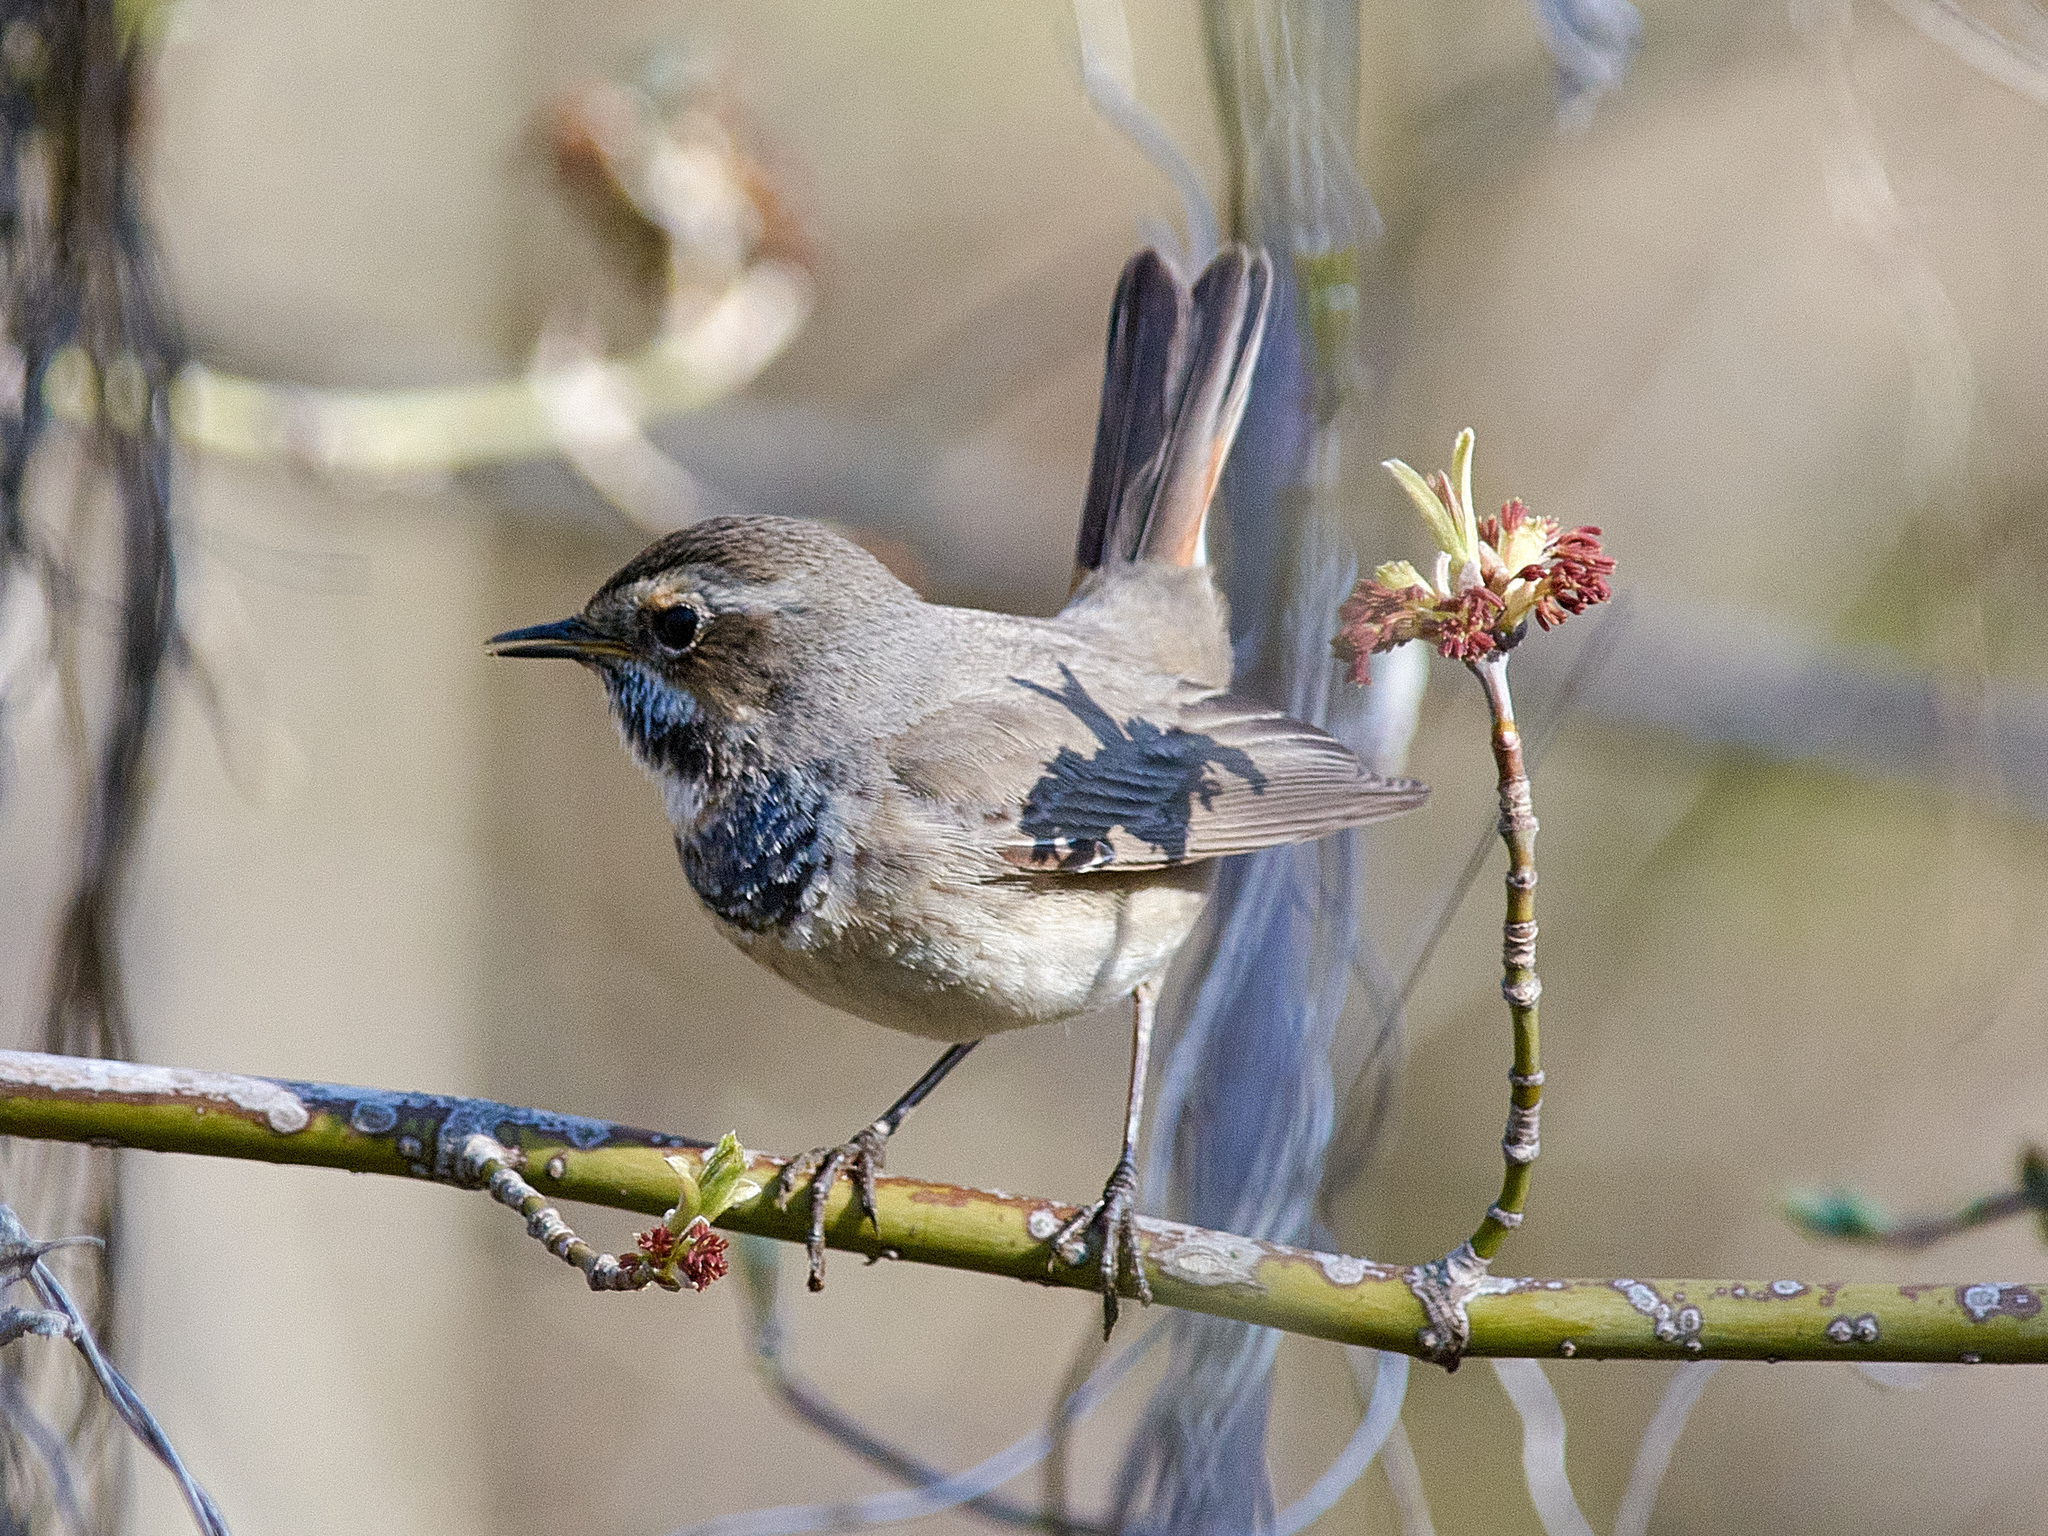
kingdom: Animalia
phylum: Chordata
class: Aves
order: Passeriformes
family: Muscicapidae
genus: Luscinia
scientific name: Luscinia svecica
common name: Bluethroat
